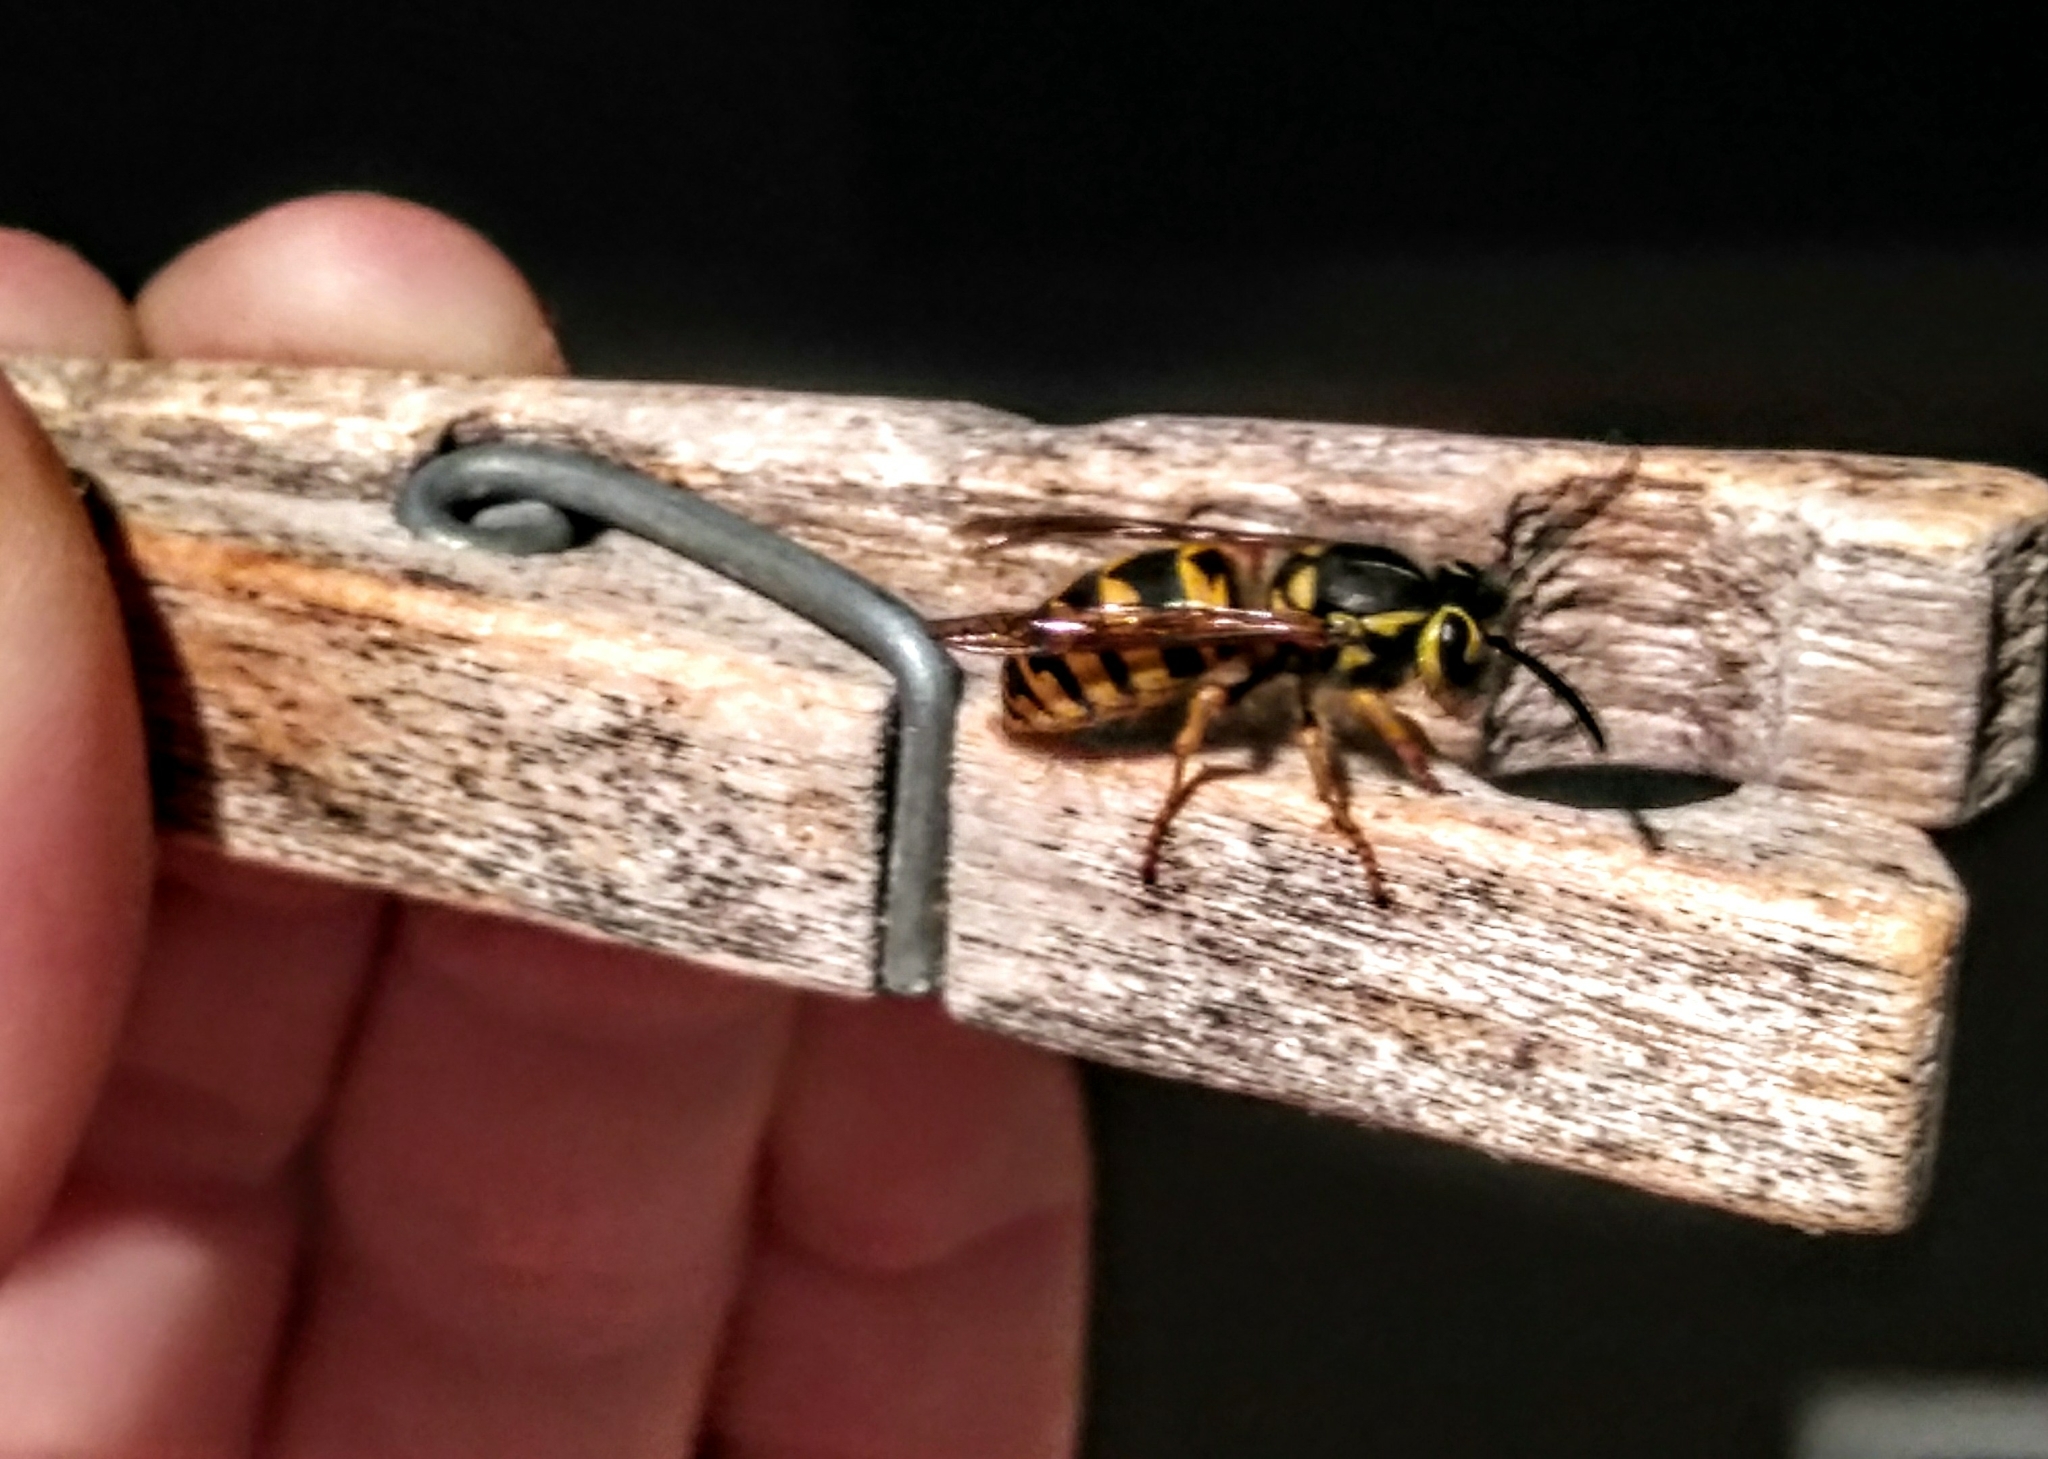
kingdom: Animalia
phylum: Arthropoda
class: Insecta
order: Hymenoptera
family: Vespidae
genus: Vespula
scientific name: Vespula pensylvanica
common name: Western yellowjacket
